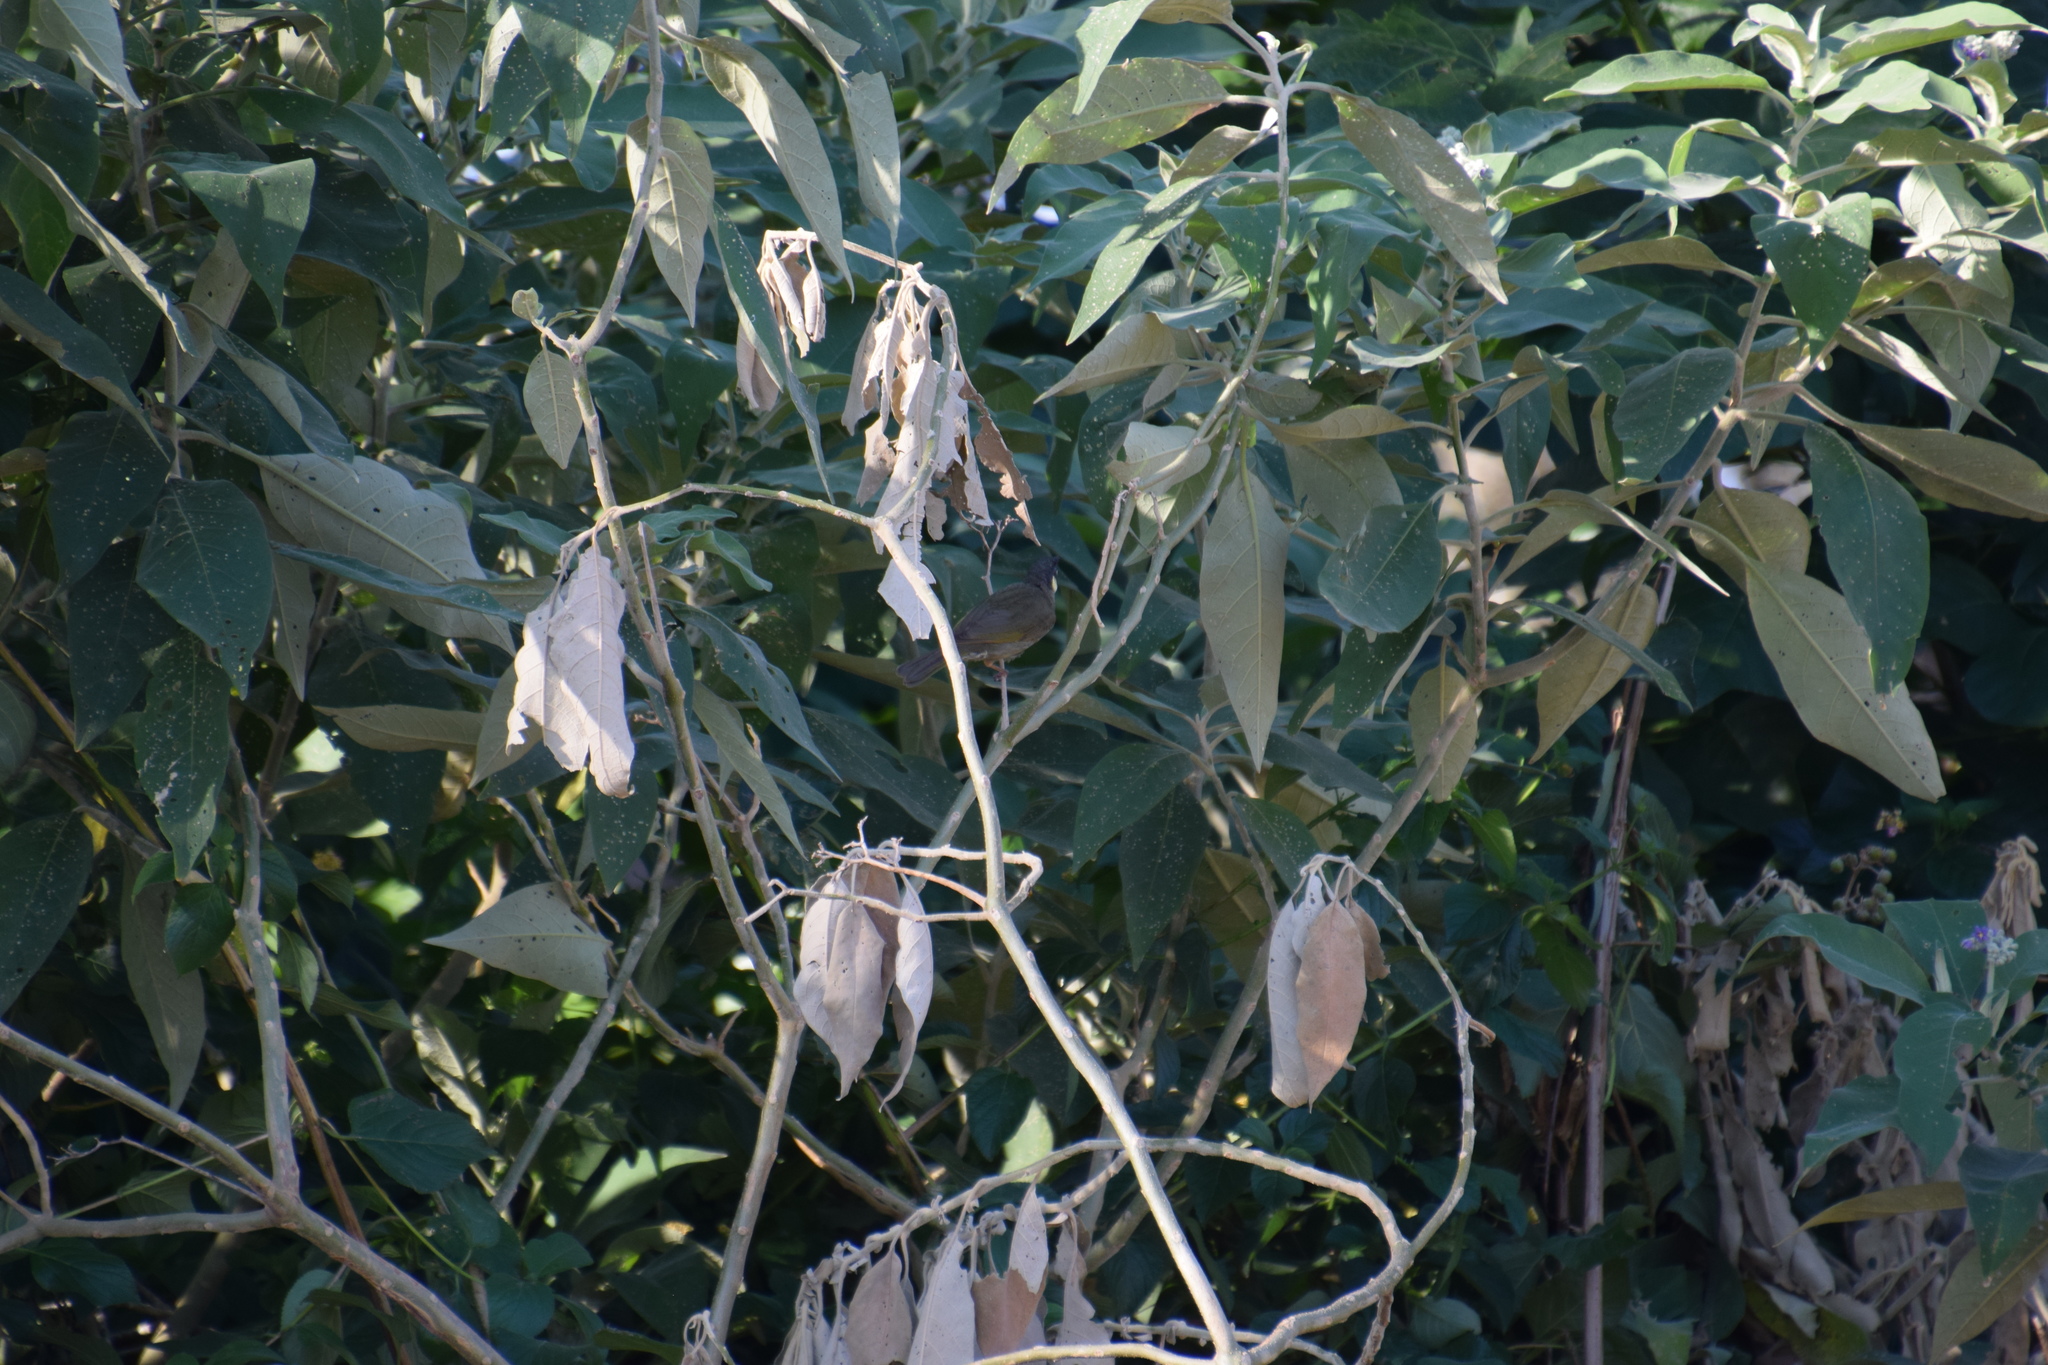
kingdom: Animalia
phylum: Chordata
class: Aves
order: Passeriformes
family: Meliphagidae
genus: Meliphaga
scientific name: Meliphaga lewinii
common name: Lewin's honeyeater
